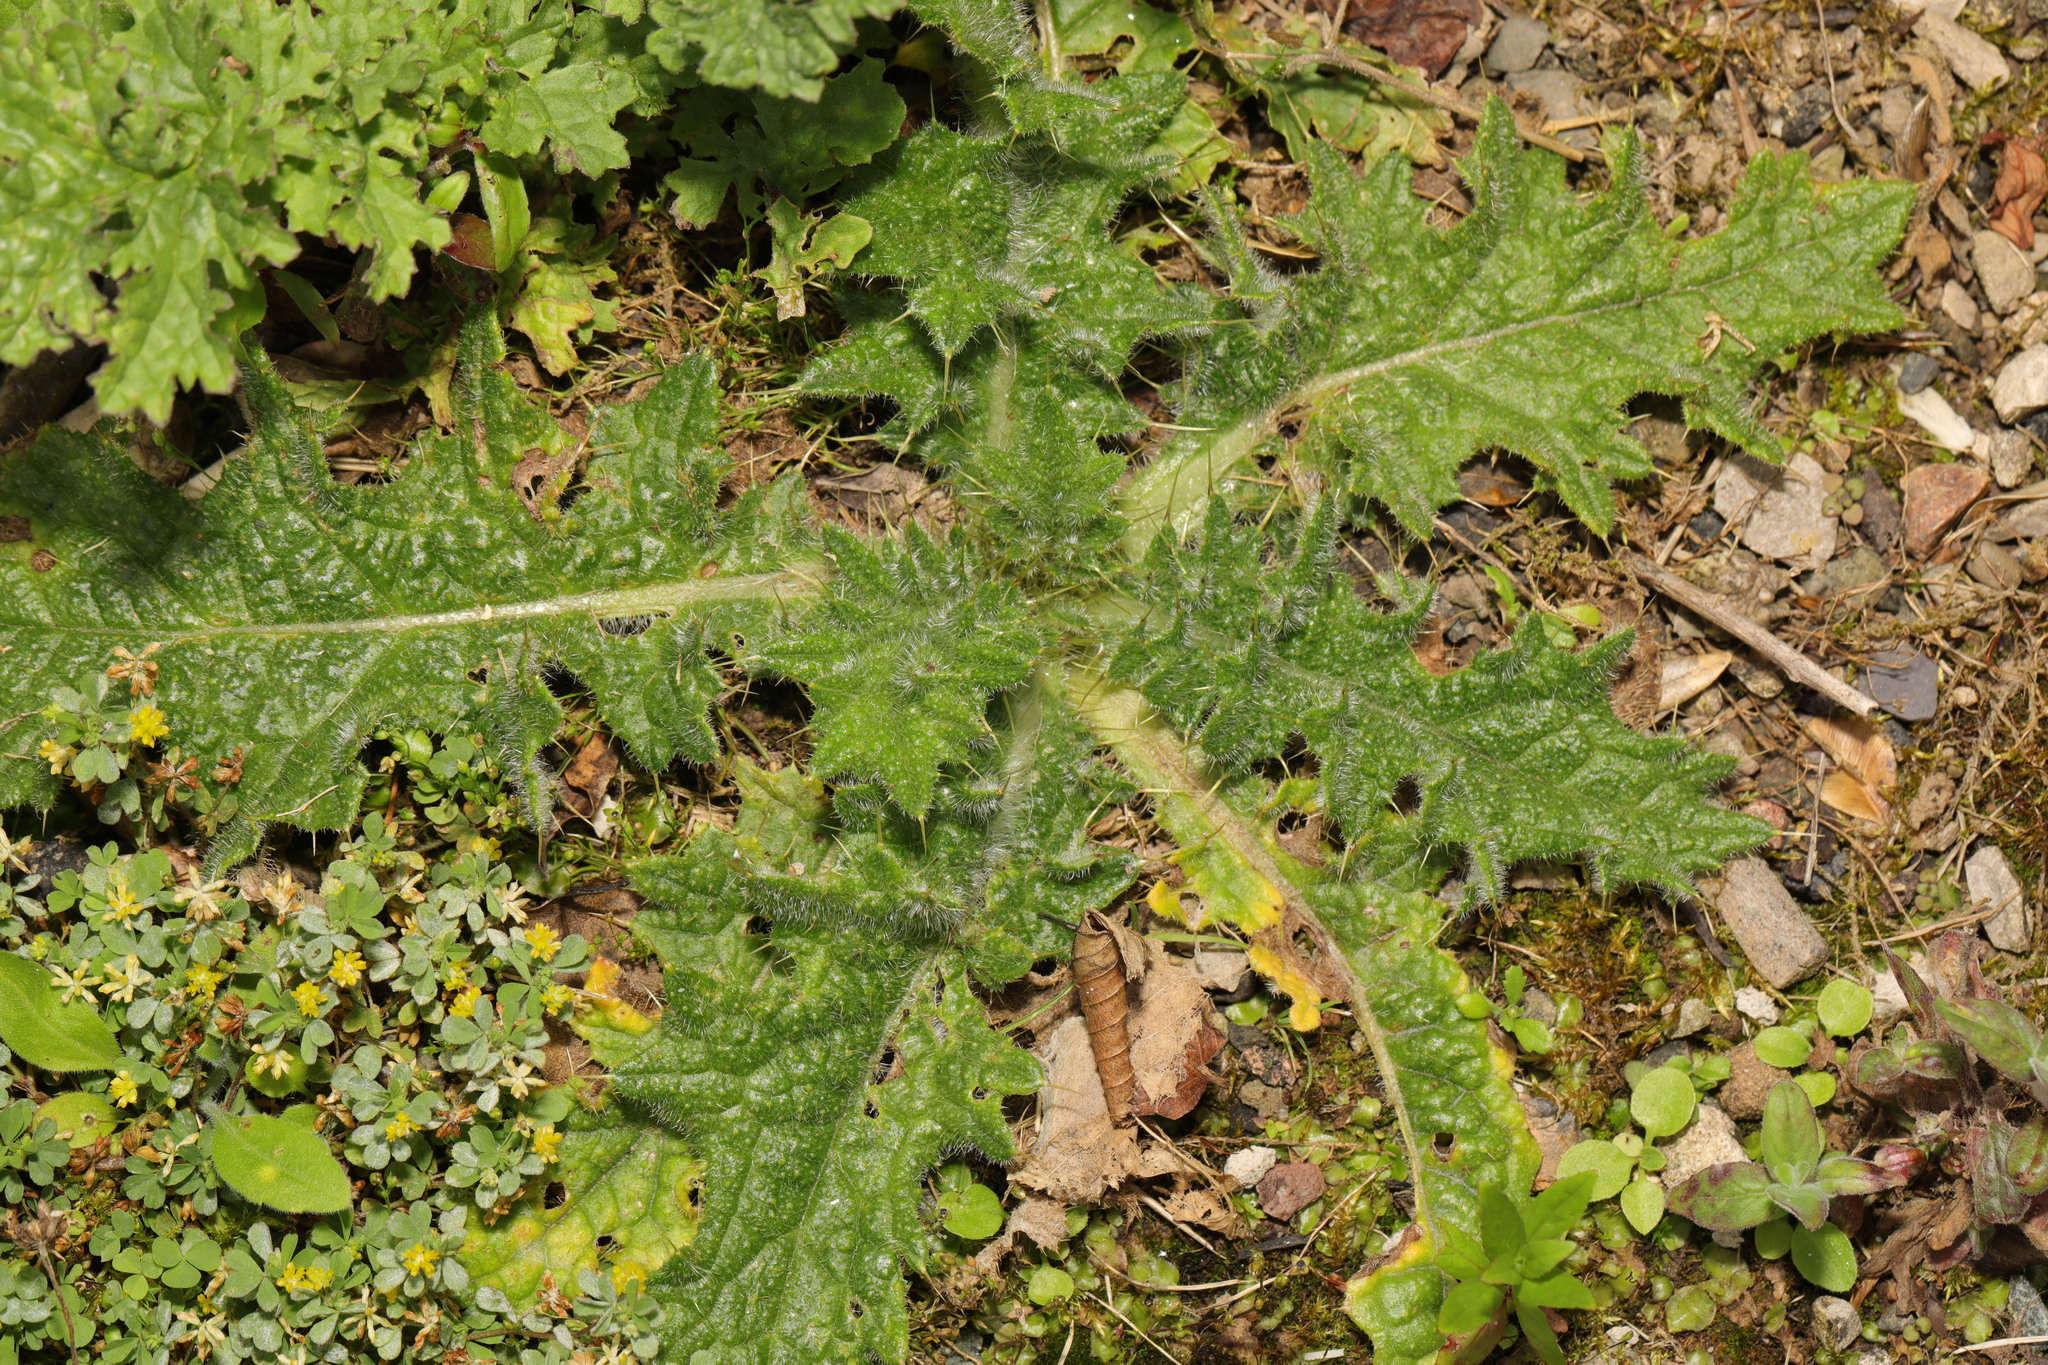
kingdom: Plantae
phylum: Tracheophyta
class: Magnoliopsida
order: Asterales
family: Asteraceae
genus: Cirsium
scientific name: Cirsium vulgare
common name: Bull thistle
